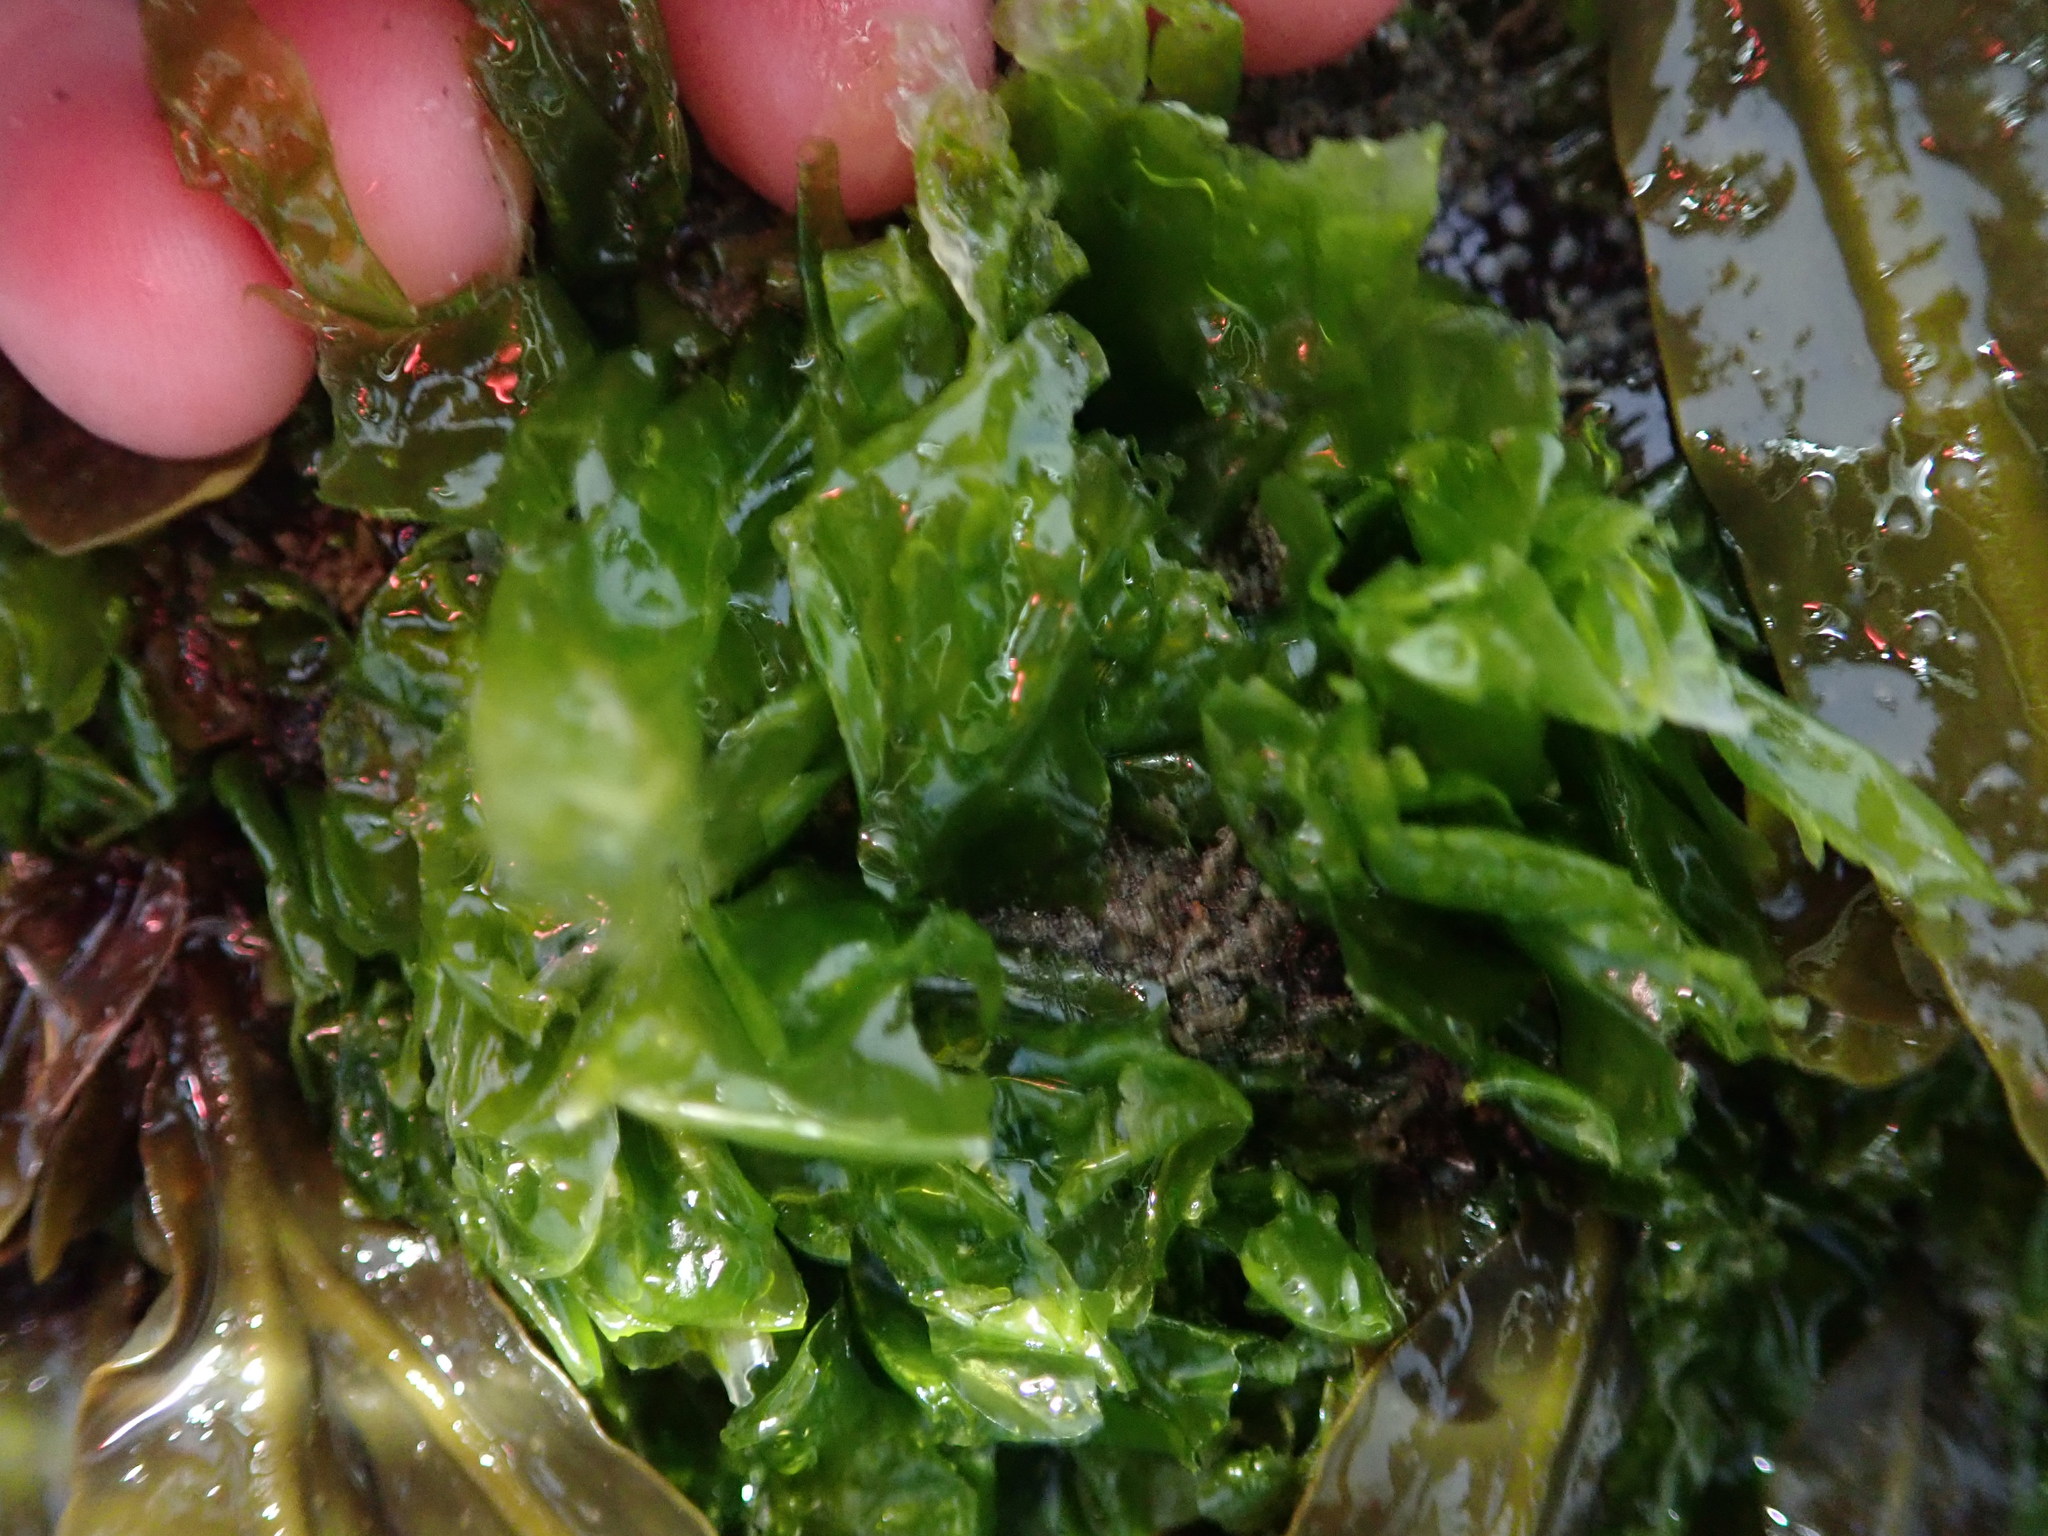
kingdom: Plantae
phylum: Chlorophyta
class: Ulvophyceae
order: Ulvales
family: Ulvaceae
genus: Ulva
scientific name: Ulva lactuca
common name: Sea lettuce
